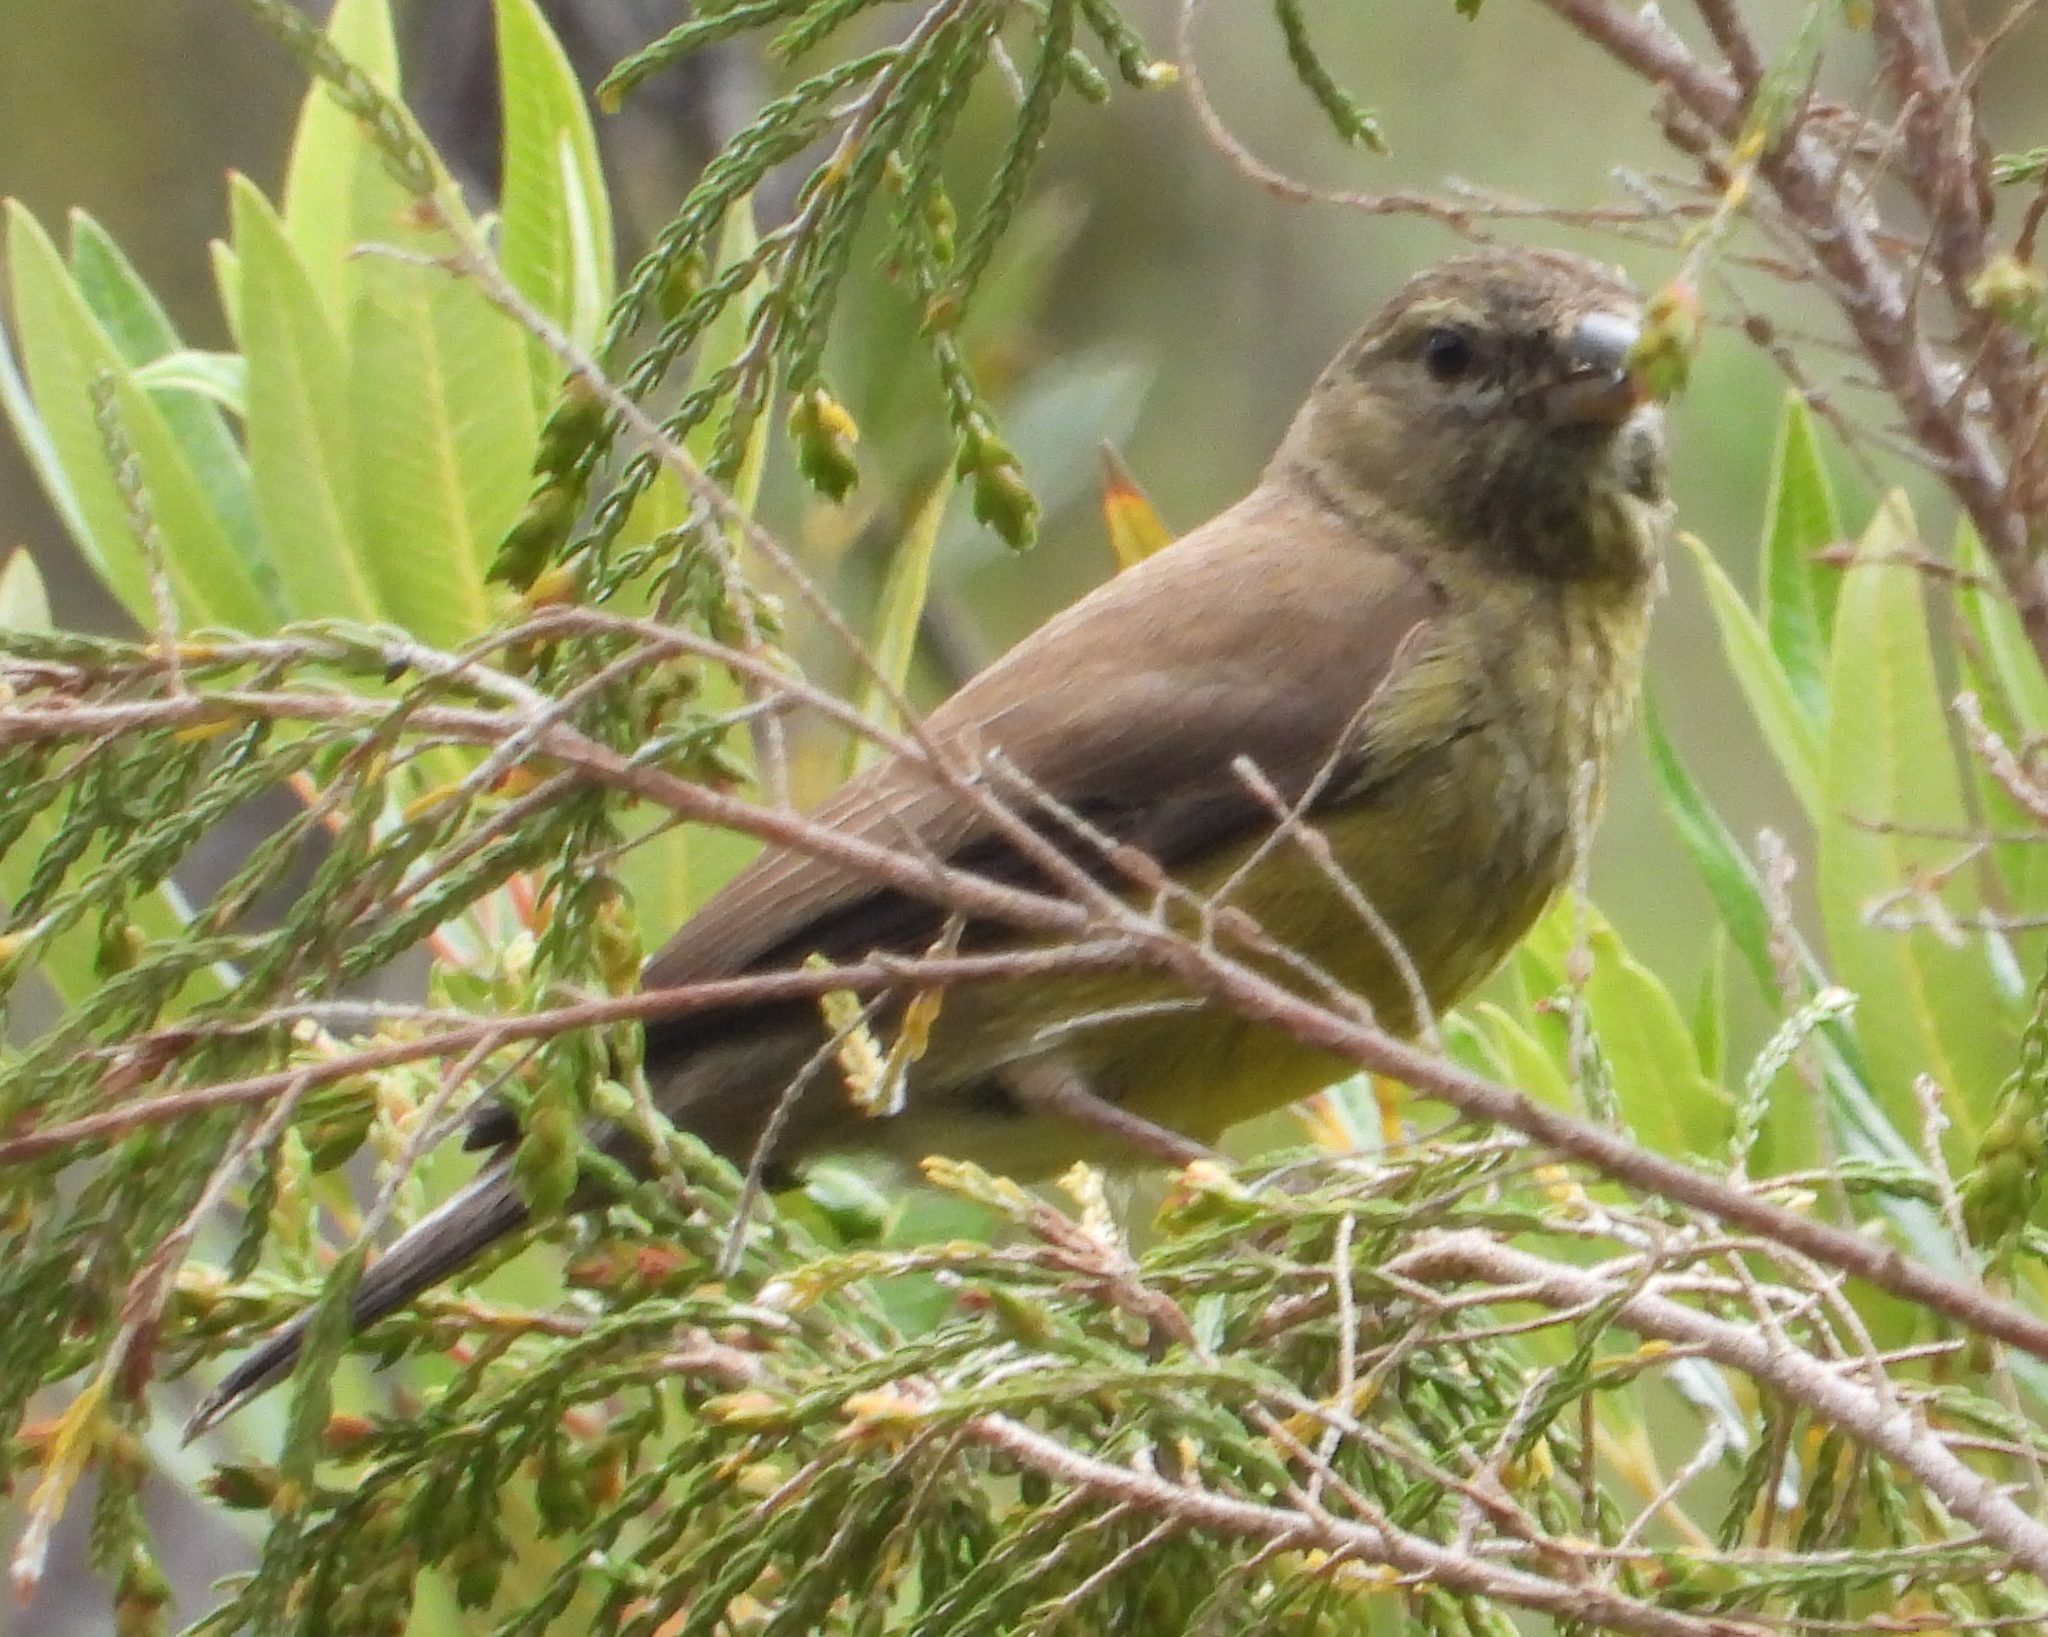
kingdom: Animalia
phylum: Chordata
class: Aves
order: Passeriformes
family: Fringillidae
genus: Crithagra
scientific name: Crithagra totta
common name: Cape siskin
